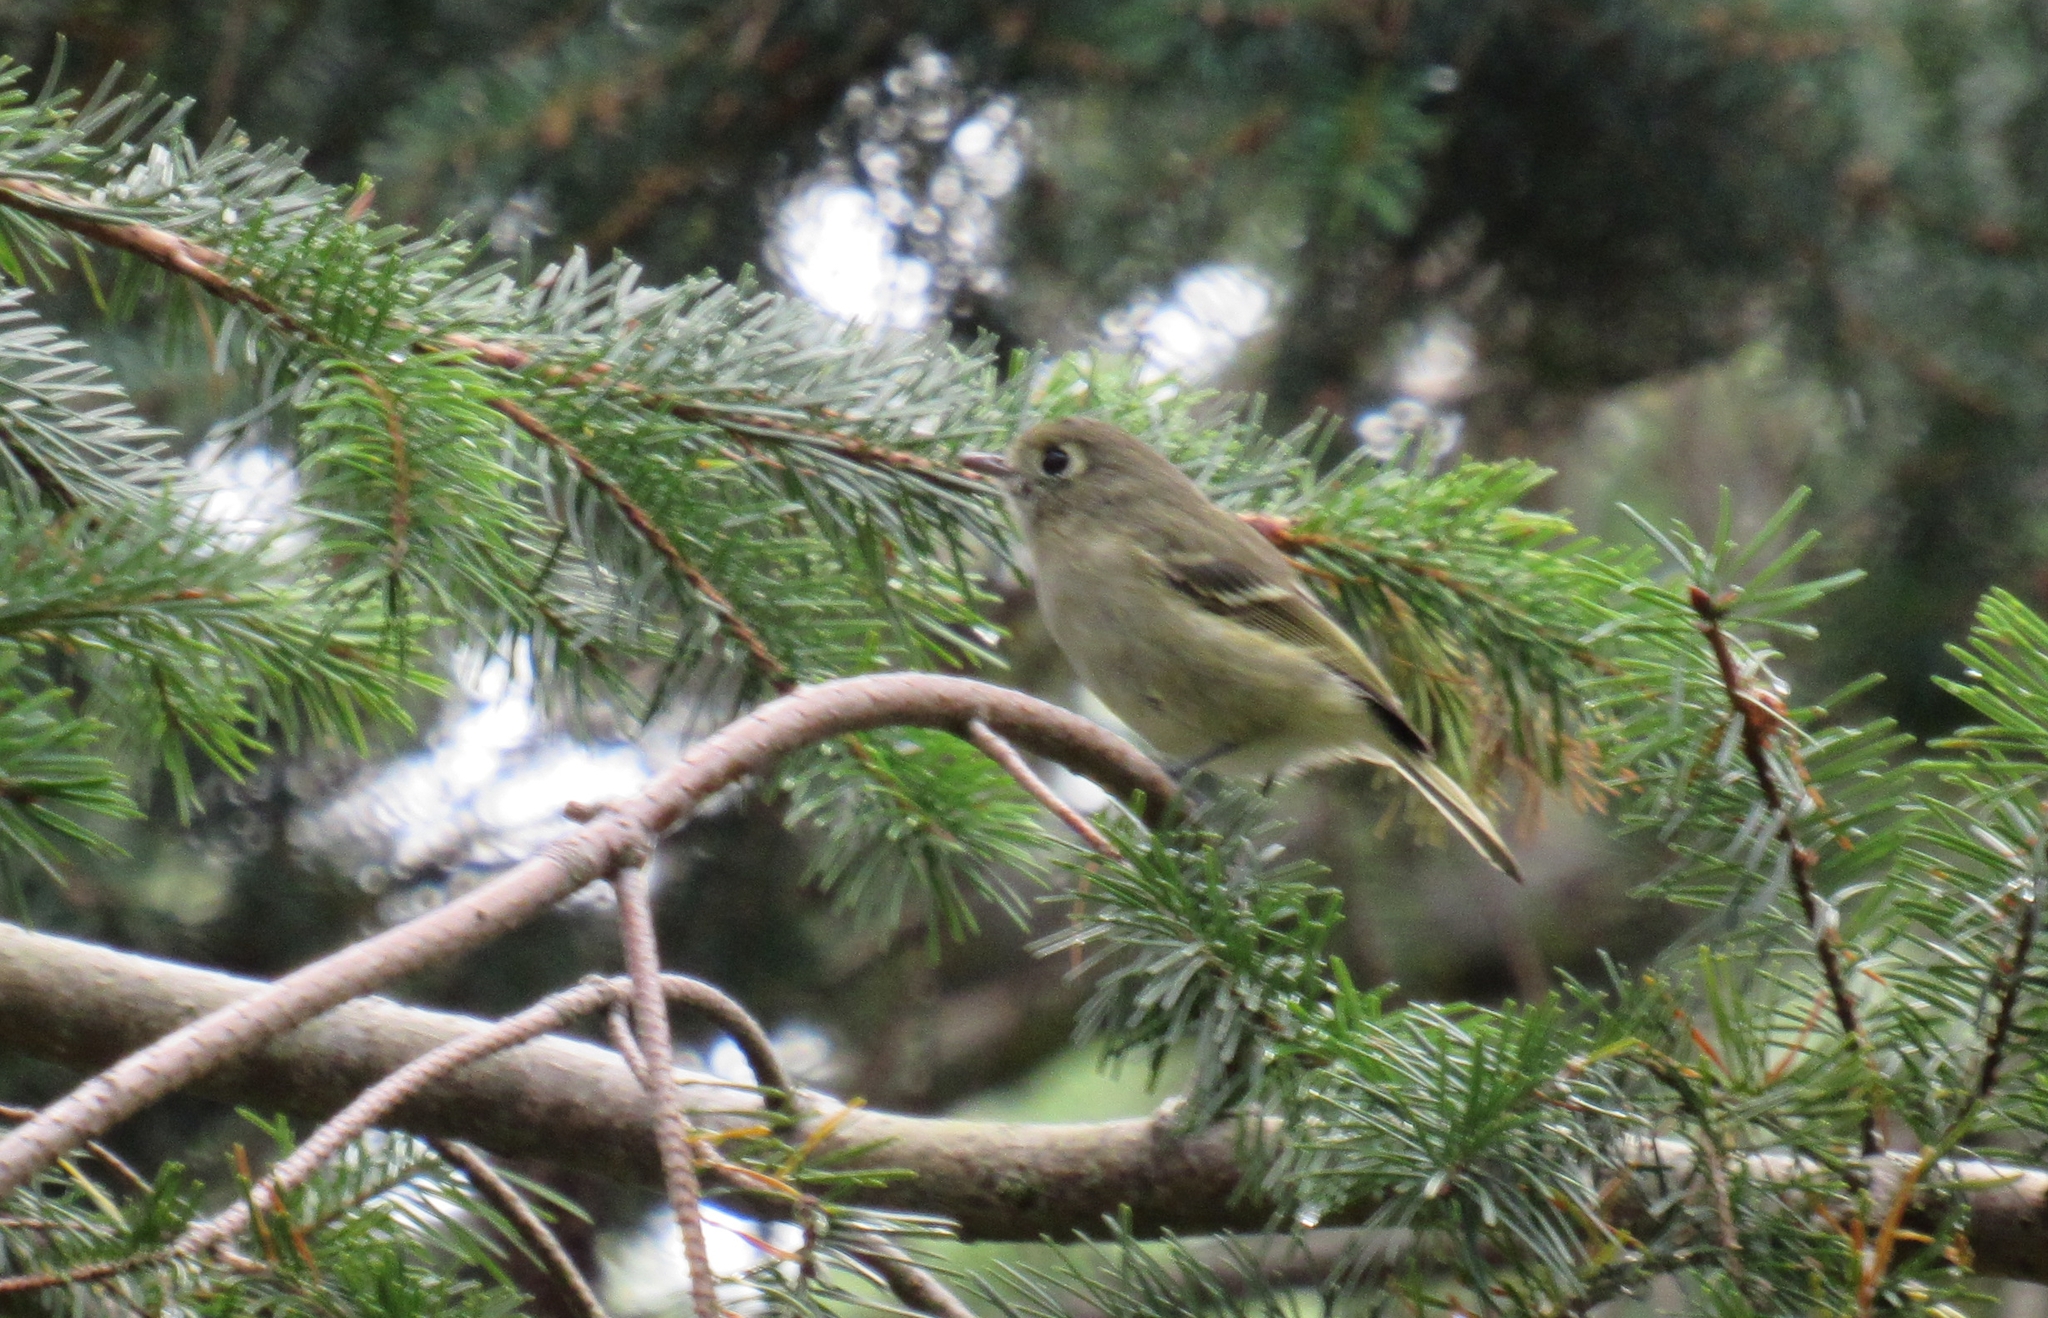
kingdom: Animalia
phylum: Chordata
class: Aves
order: Passeriformes
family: Vireonidae
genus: Vireo
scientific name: Vireo huttoni
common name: Hutton's vireo
